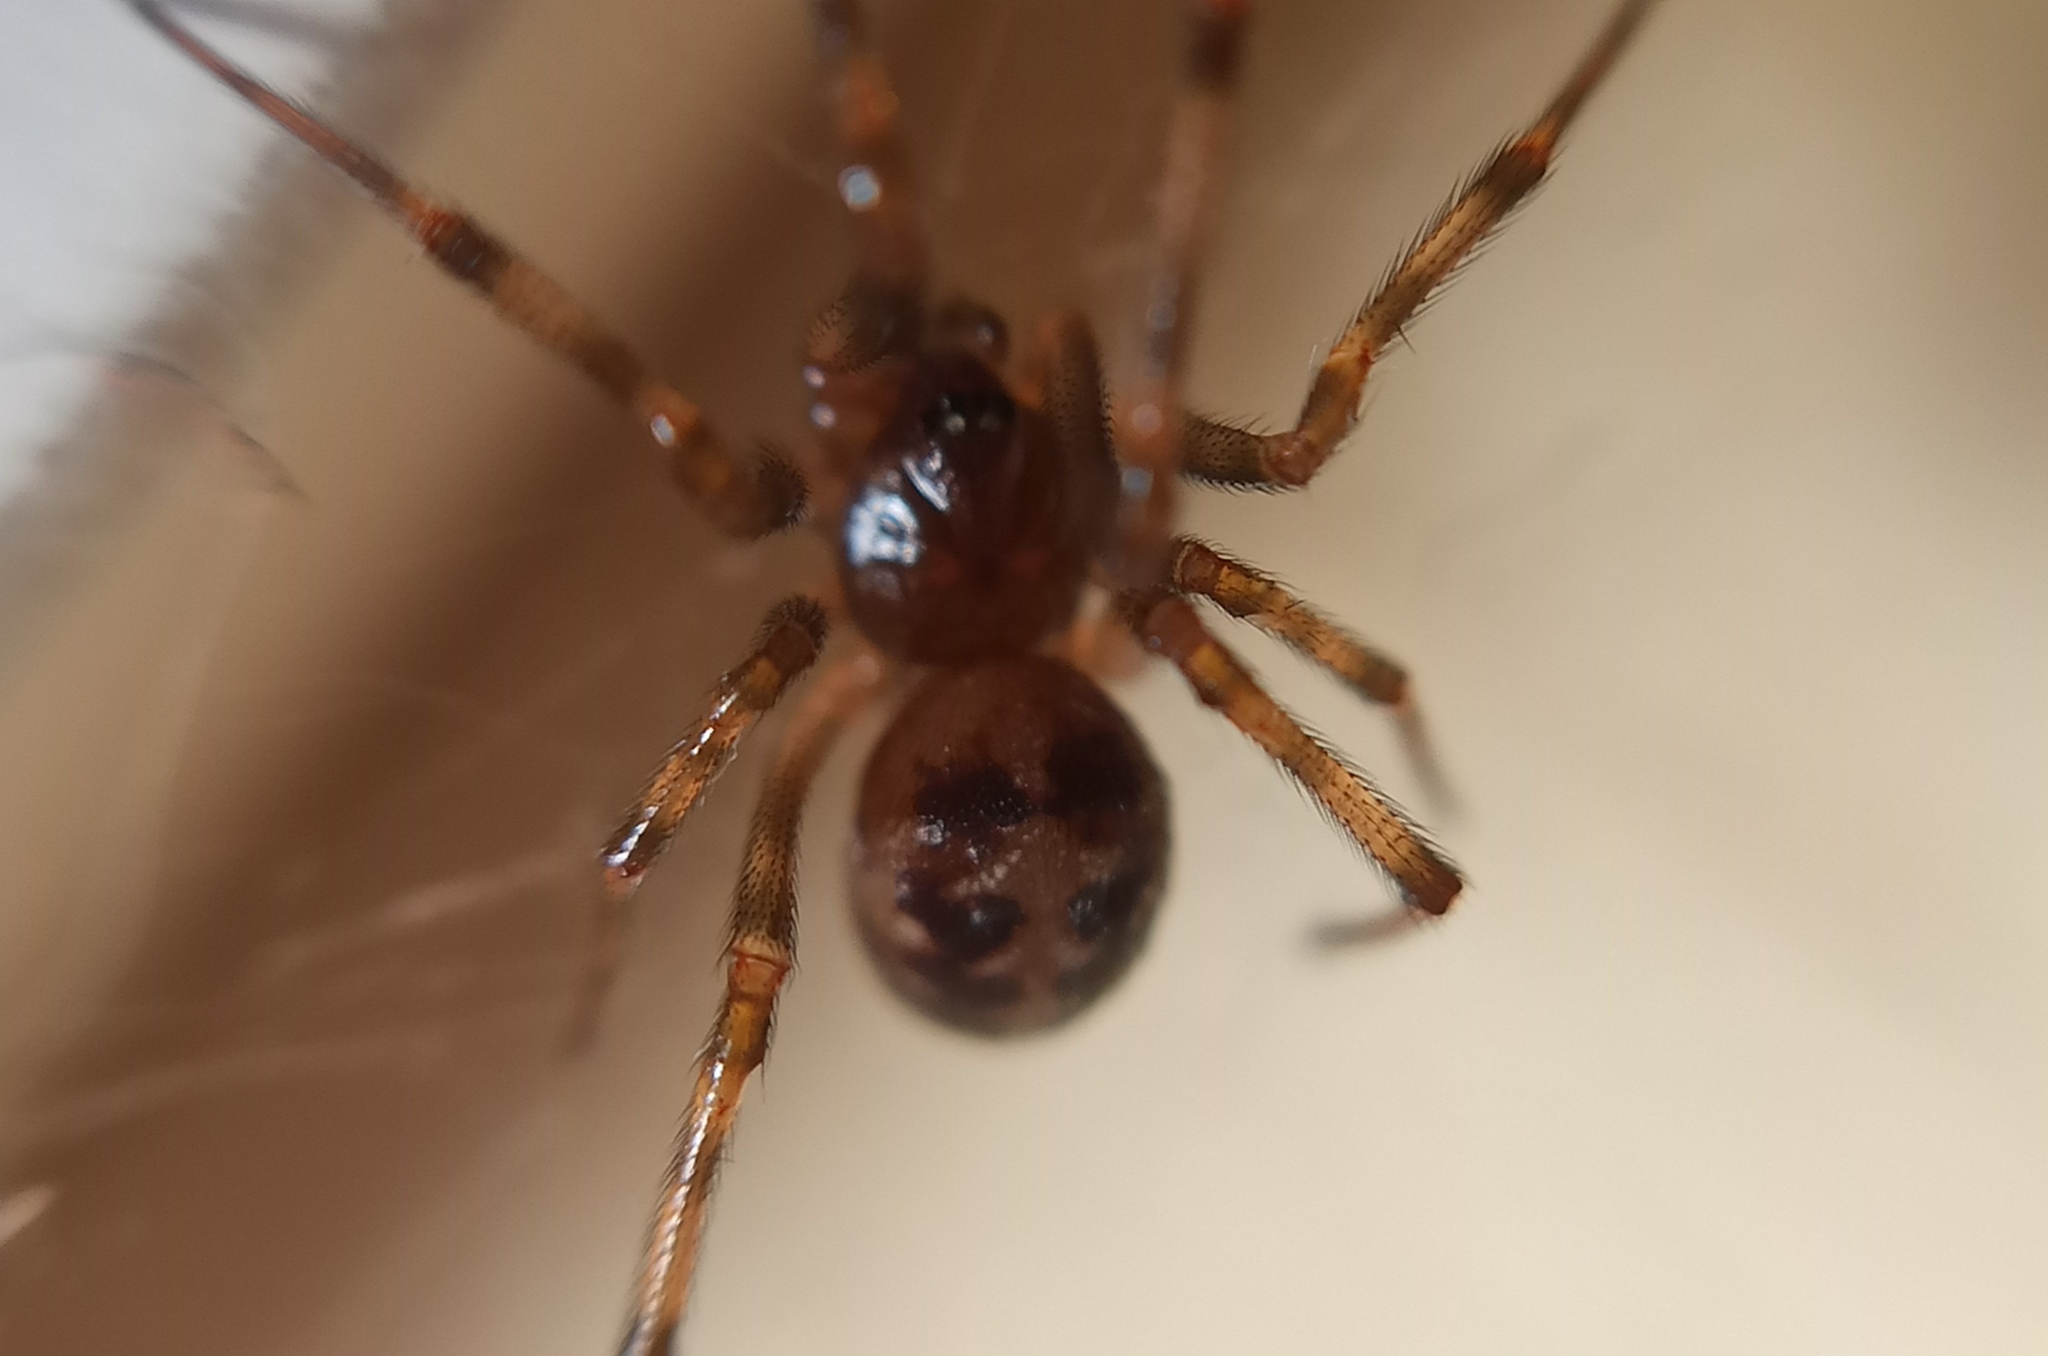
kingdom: Animalia
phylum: Arthropoda
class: Arachnida
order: Araneae
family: Theridiidae
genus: Steatoda
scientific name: Steatoda triangulosa
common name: Triangulate bud spider
